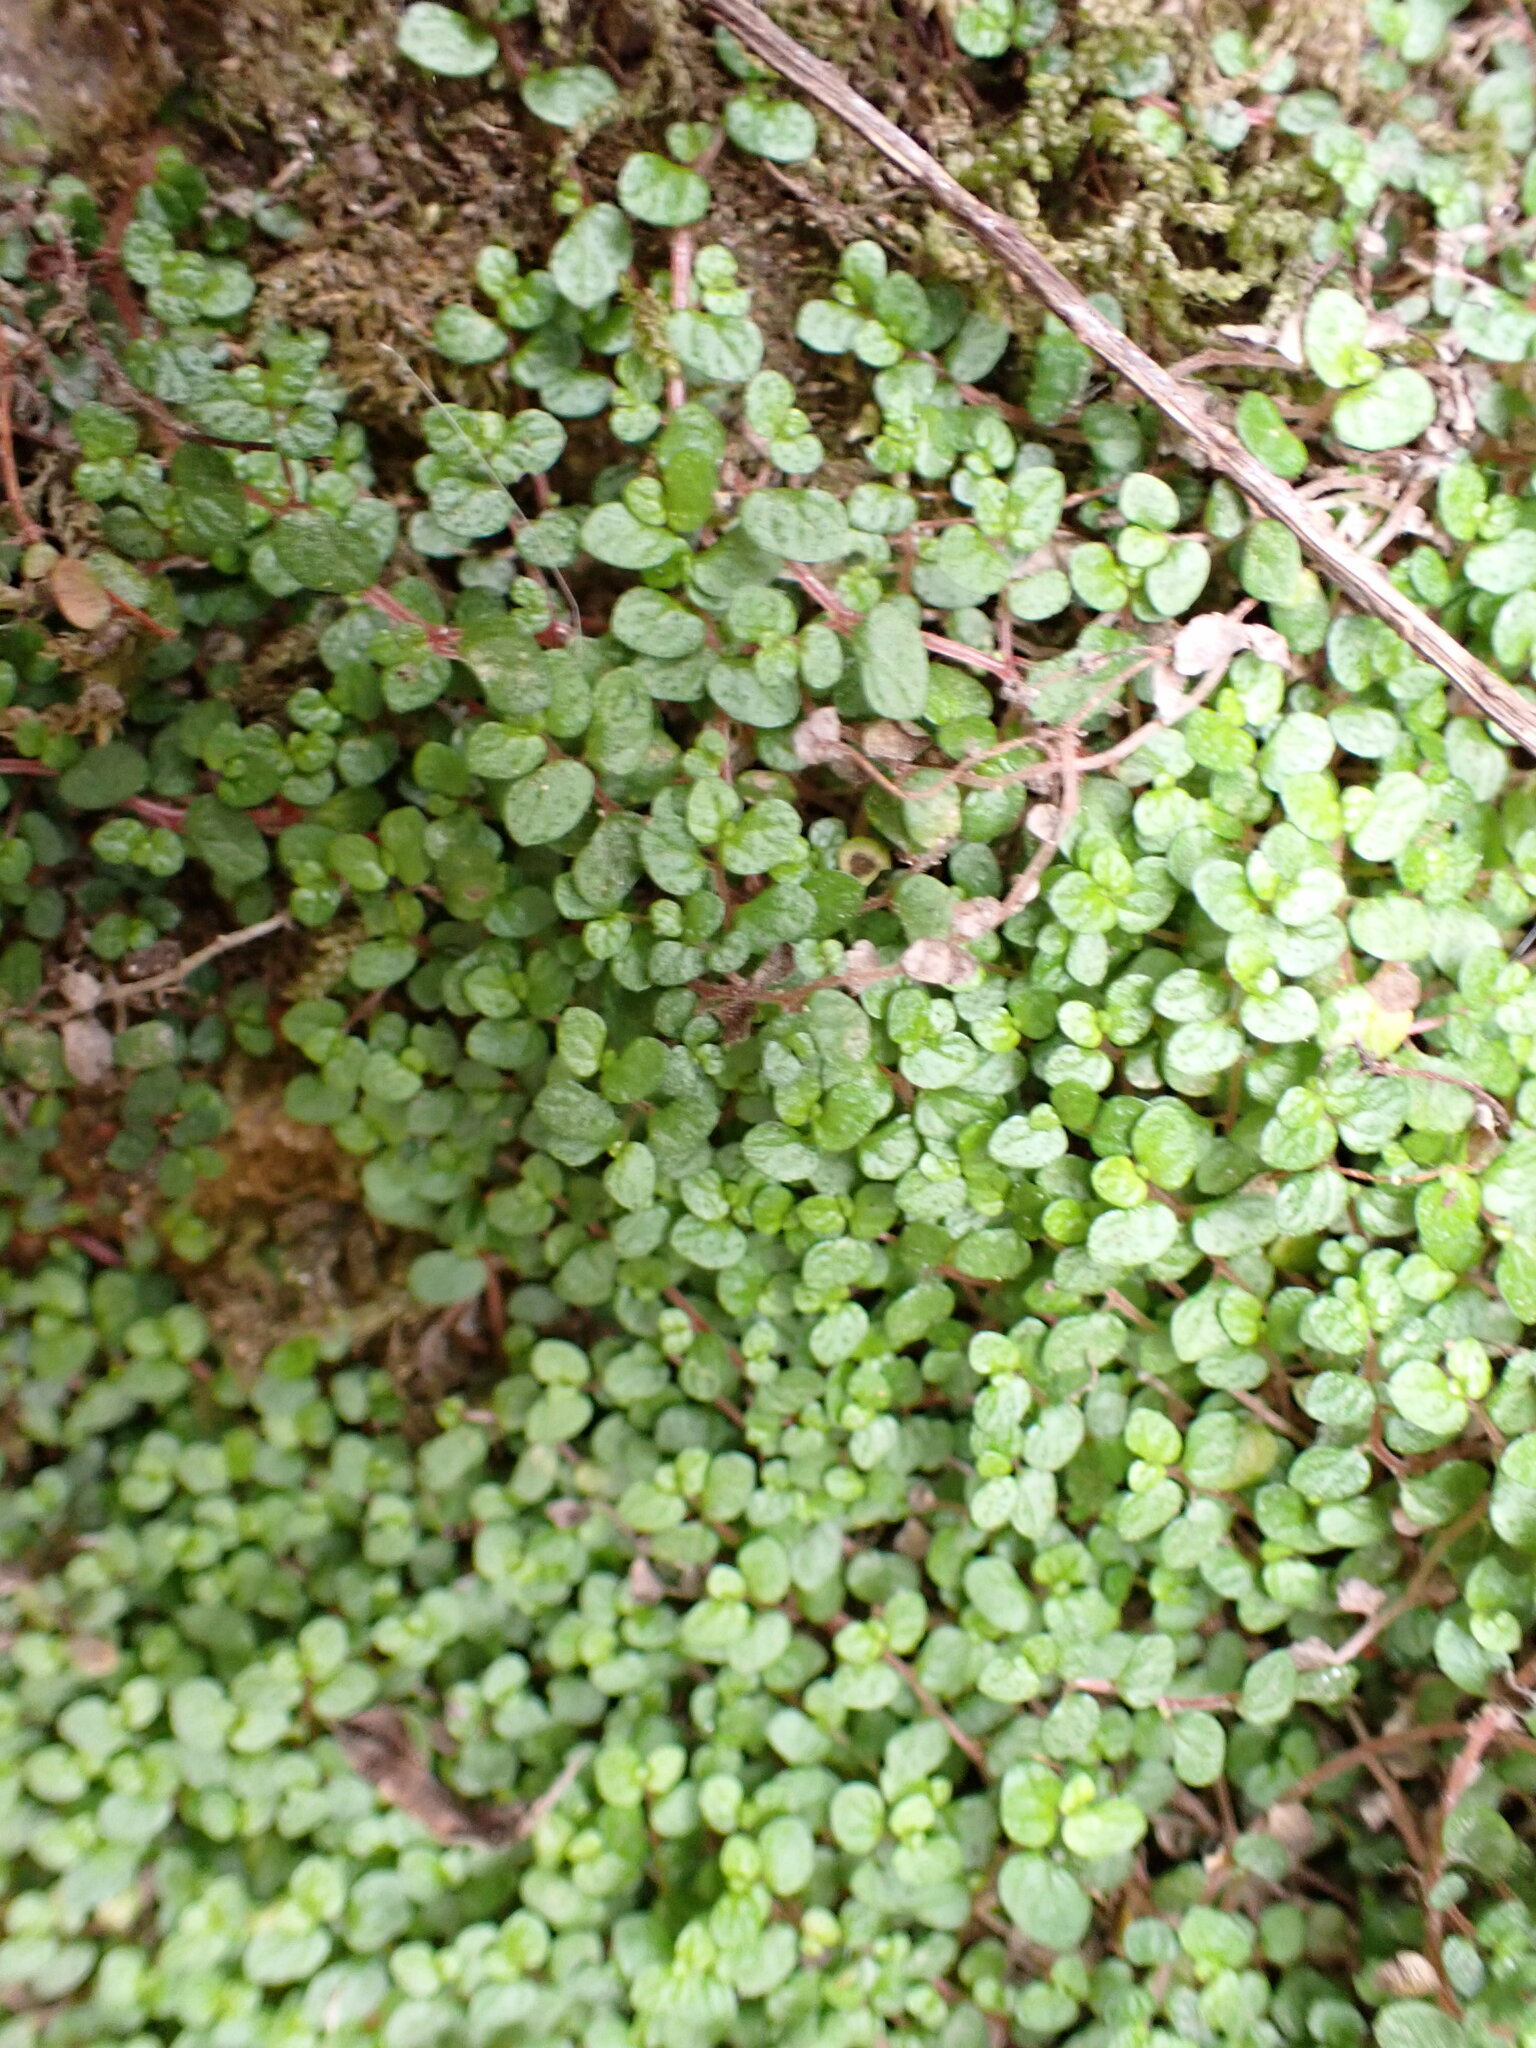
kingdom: Plantae
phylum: Tracheophyta
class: Magnoliopsida
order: Rosales
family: Urticaceae
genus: Soleirolia
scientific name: Soleirolia soleirolii
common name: Mind-your-own-business
